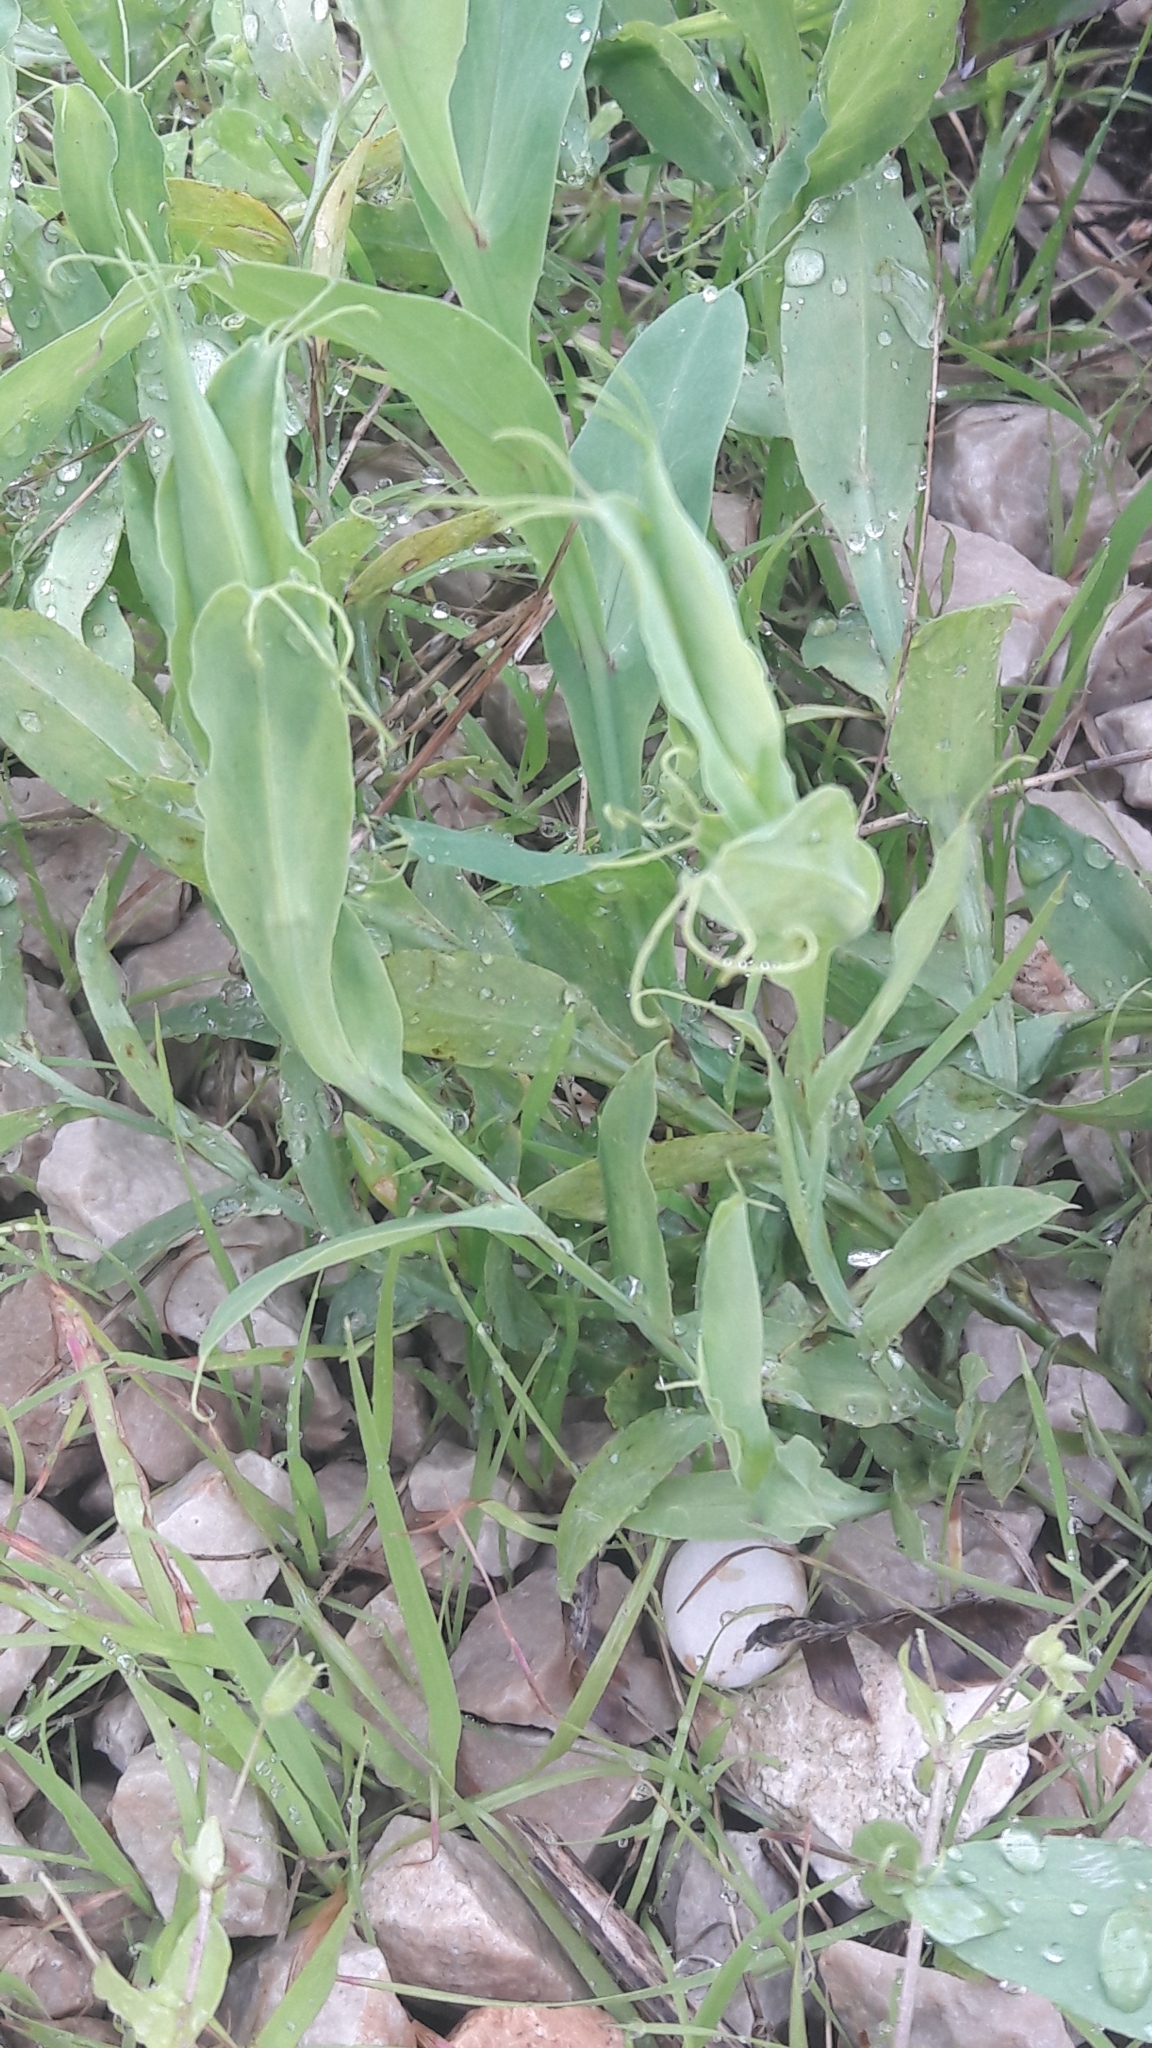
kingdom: Plantae
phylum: Tracheophyta
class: Magnoliopsida
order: Fabales
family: Fabaceae
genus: Lathyrus
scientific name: Lathyrus ochrus
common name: Winged vetchling
